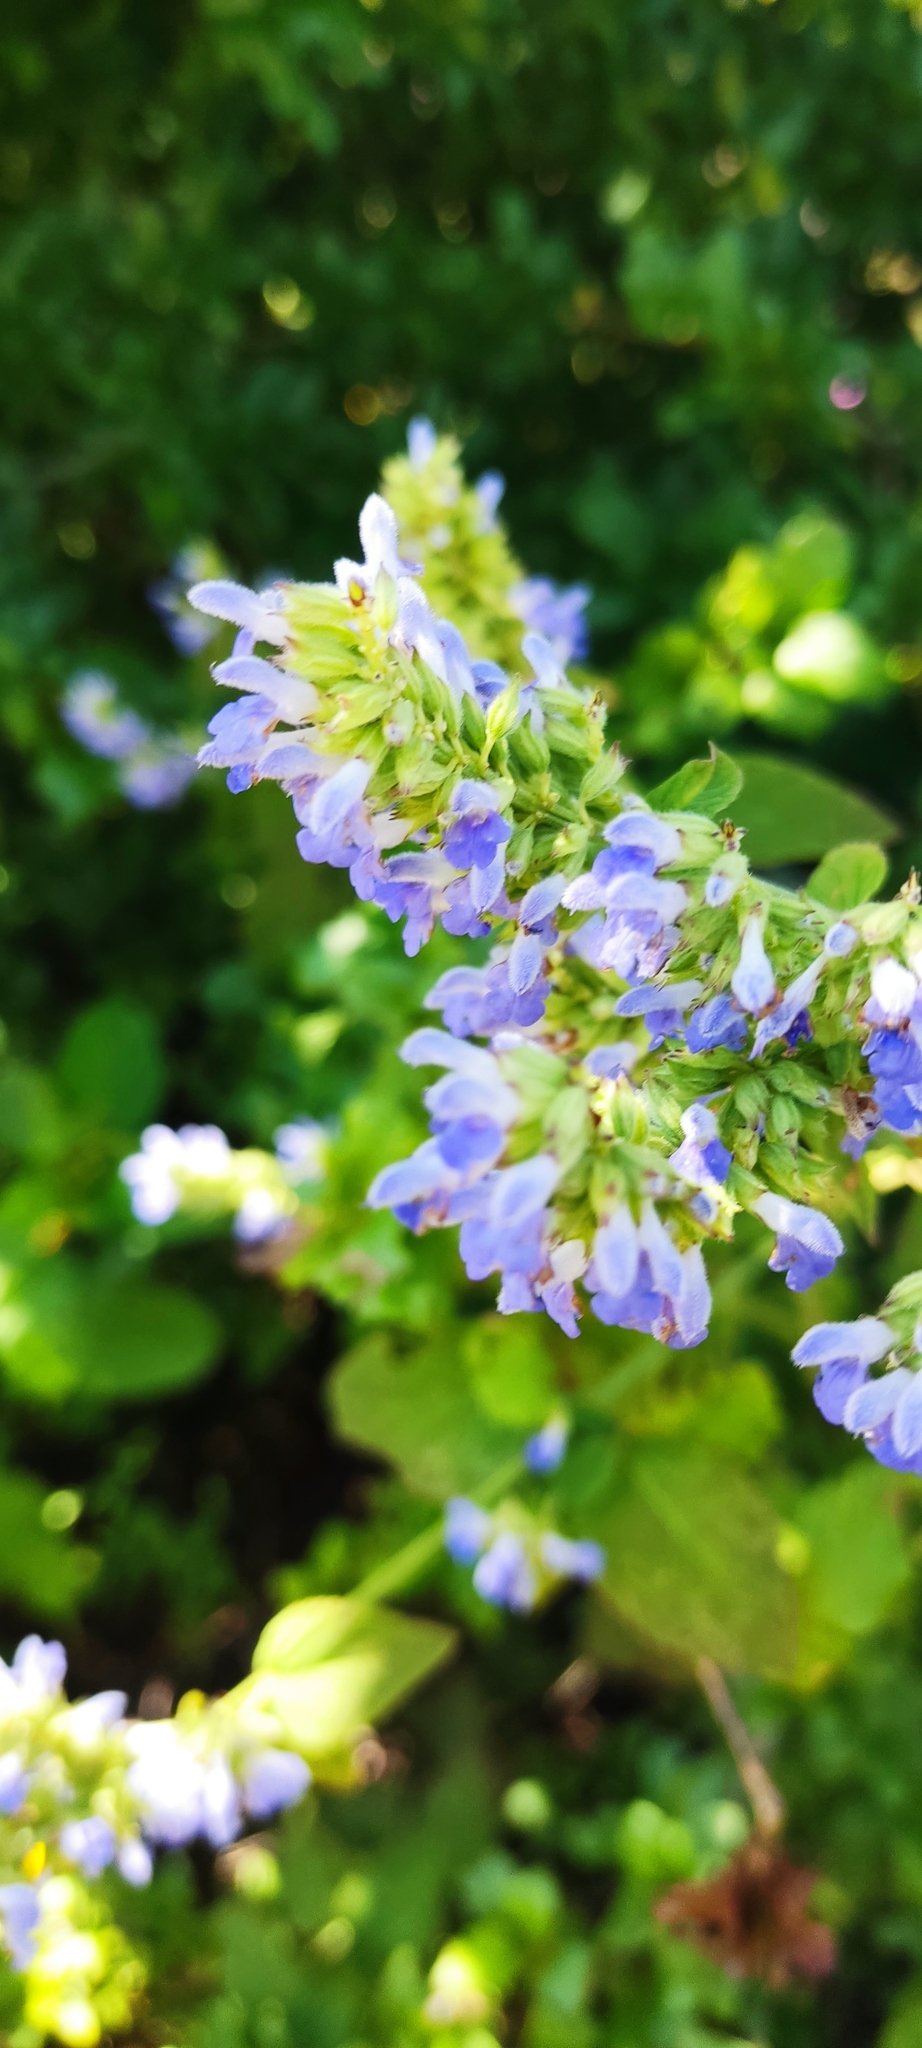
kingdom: Plantae
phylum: Tracheophyta
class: Magnoliopsida
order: Lamiales
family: Lamiaceae
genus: Salvia
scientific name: Salvia polystachia
